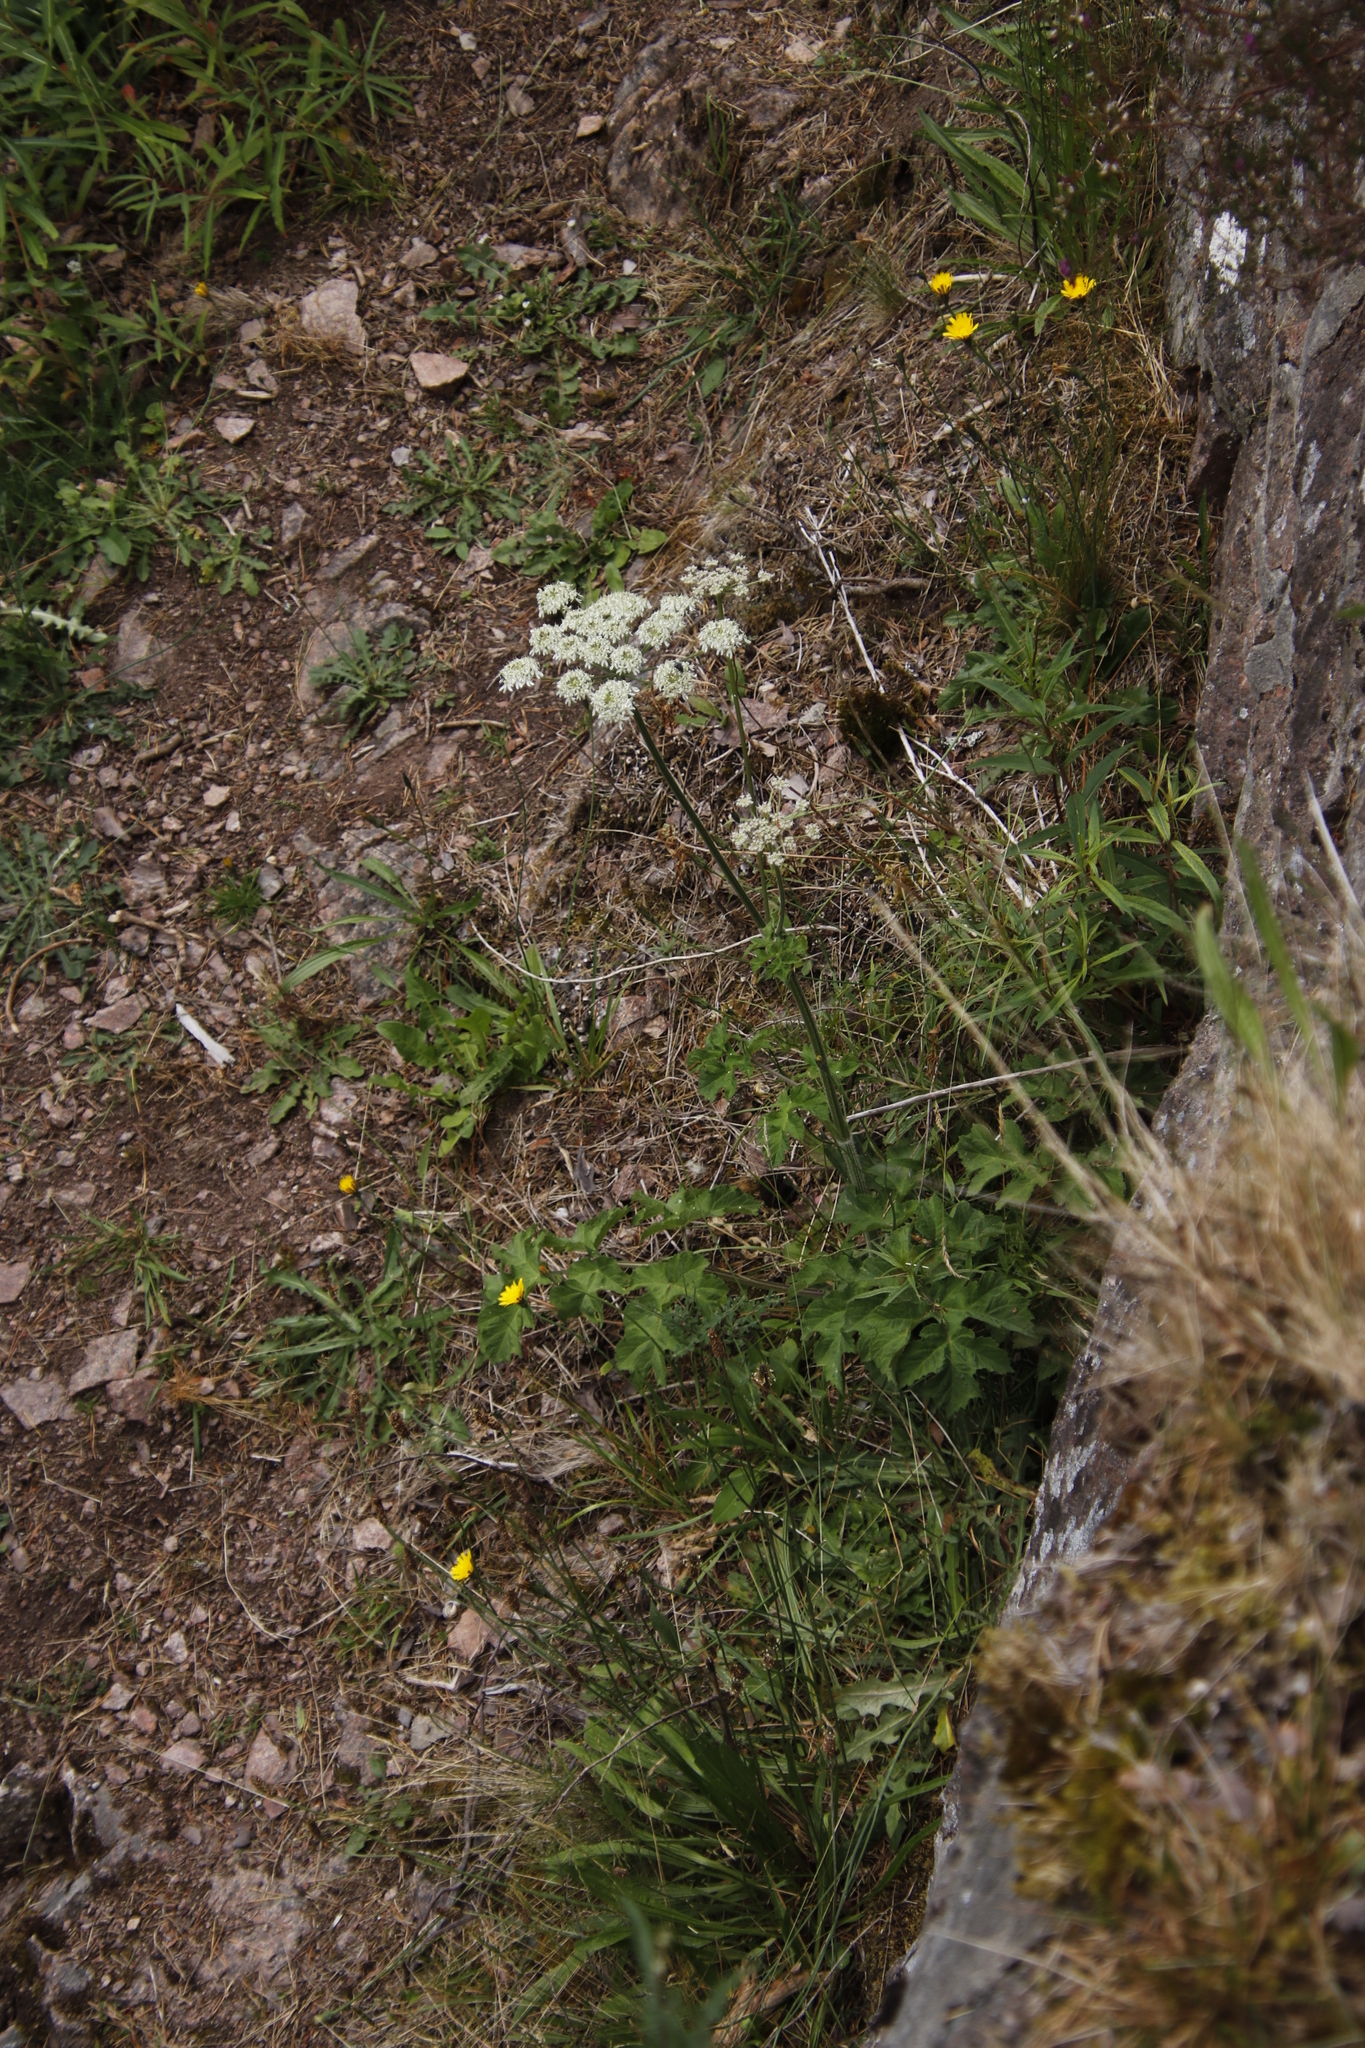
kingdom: Plantae
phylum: Tracheophyta
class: Magnoliopsida
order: Apiales
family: Apiaceae
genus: Heracleum
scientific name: Heracleum sphondylium
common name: Hogweed
